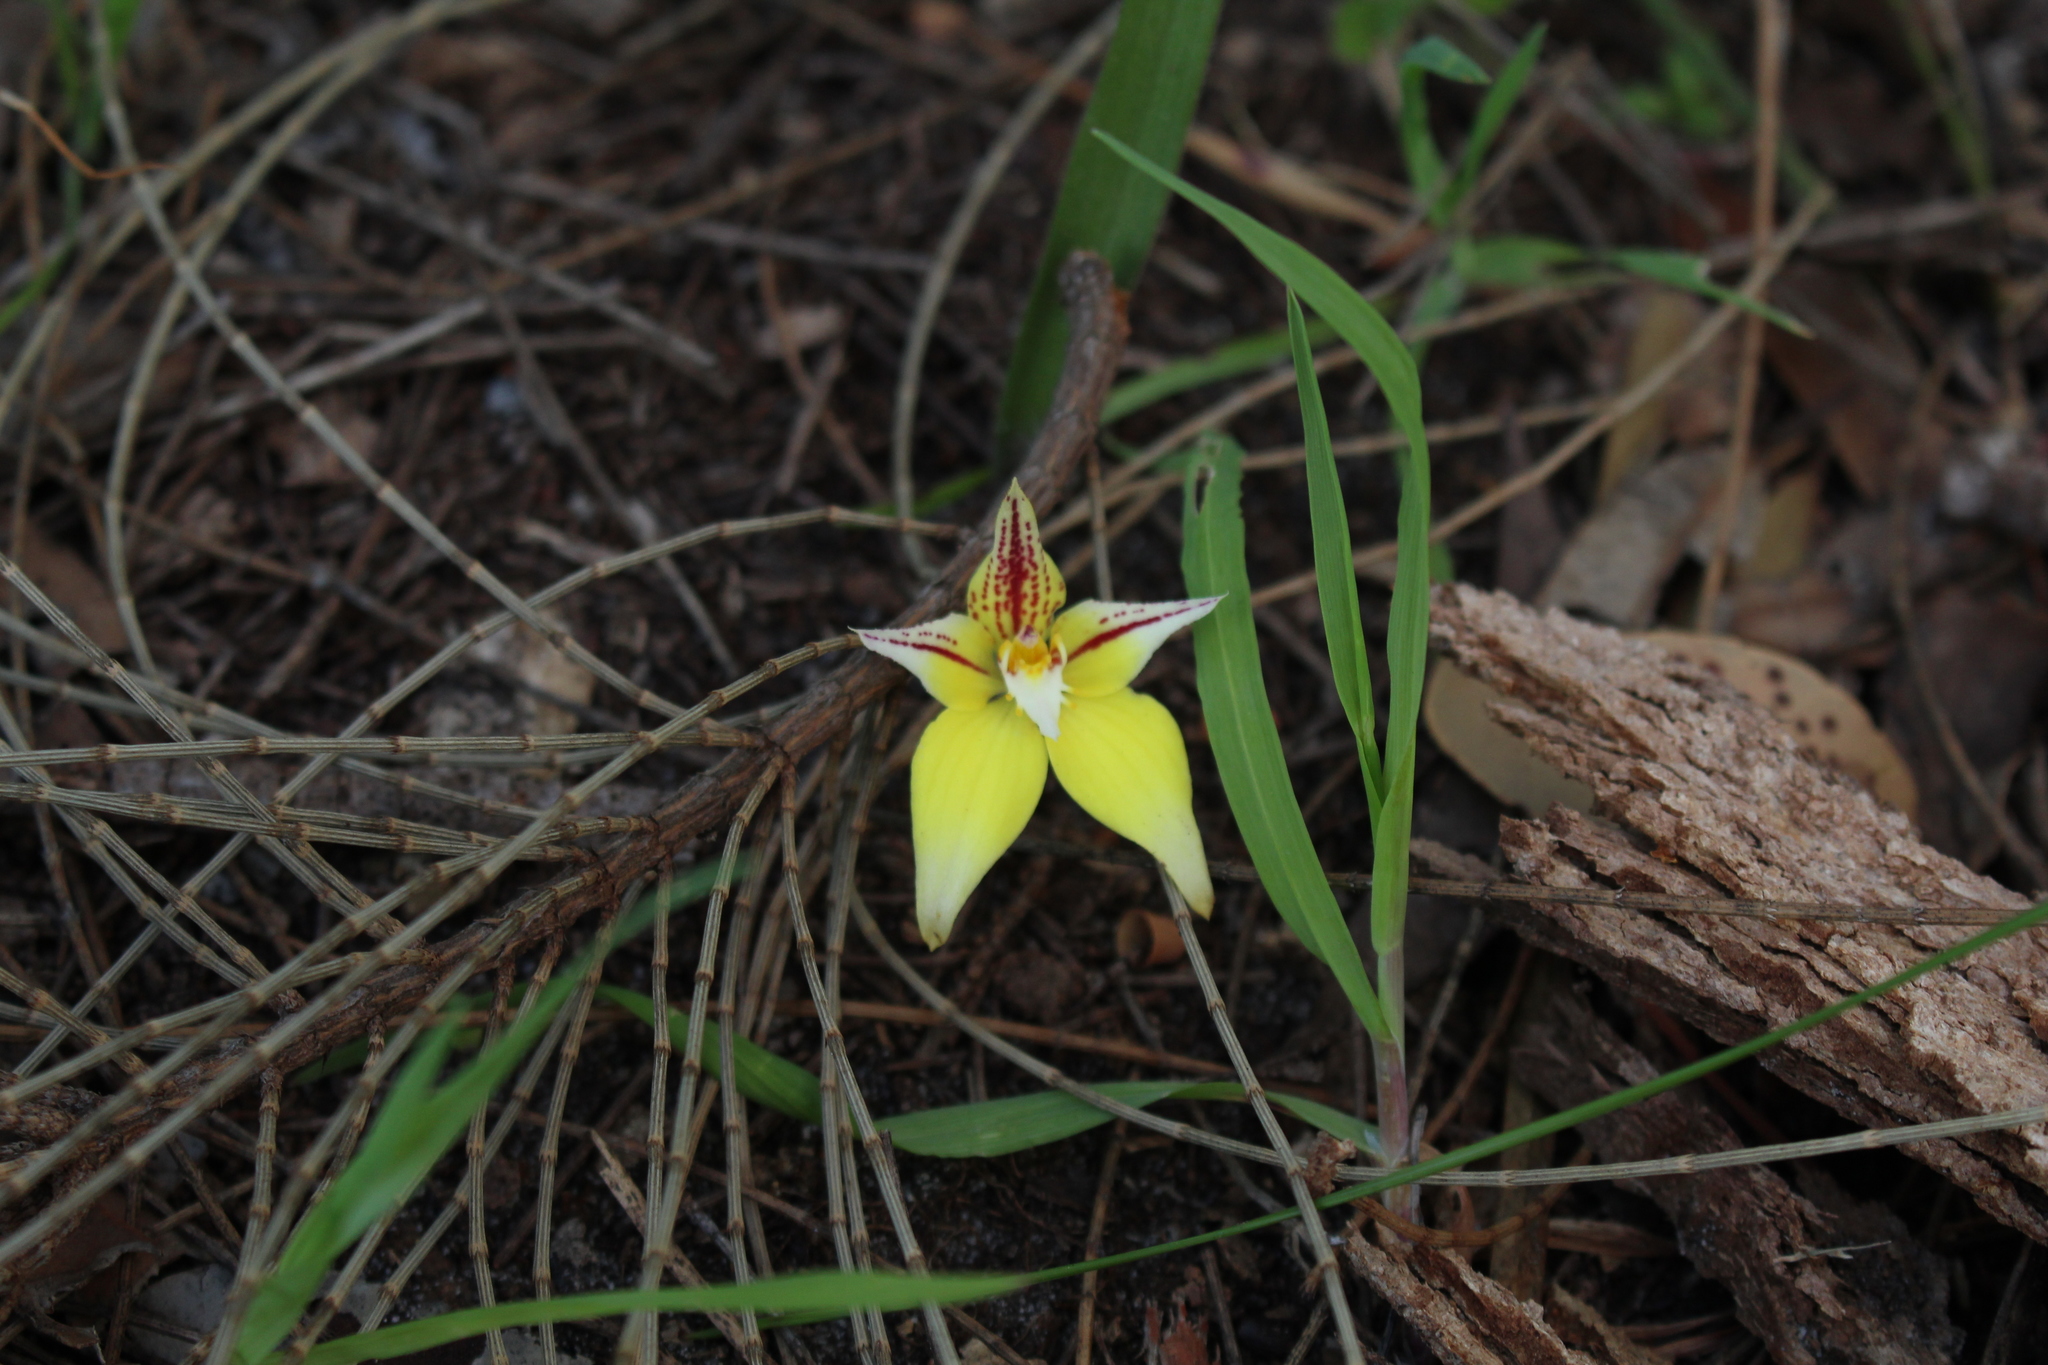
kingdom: Plantae
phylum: Tracheophyta
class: Liliopsida
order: Asparagales
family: Orchidaceae
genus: Caladenia
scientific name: Caladenia flava
